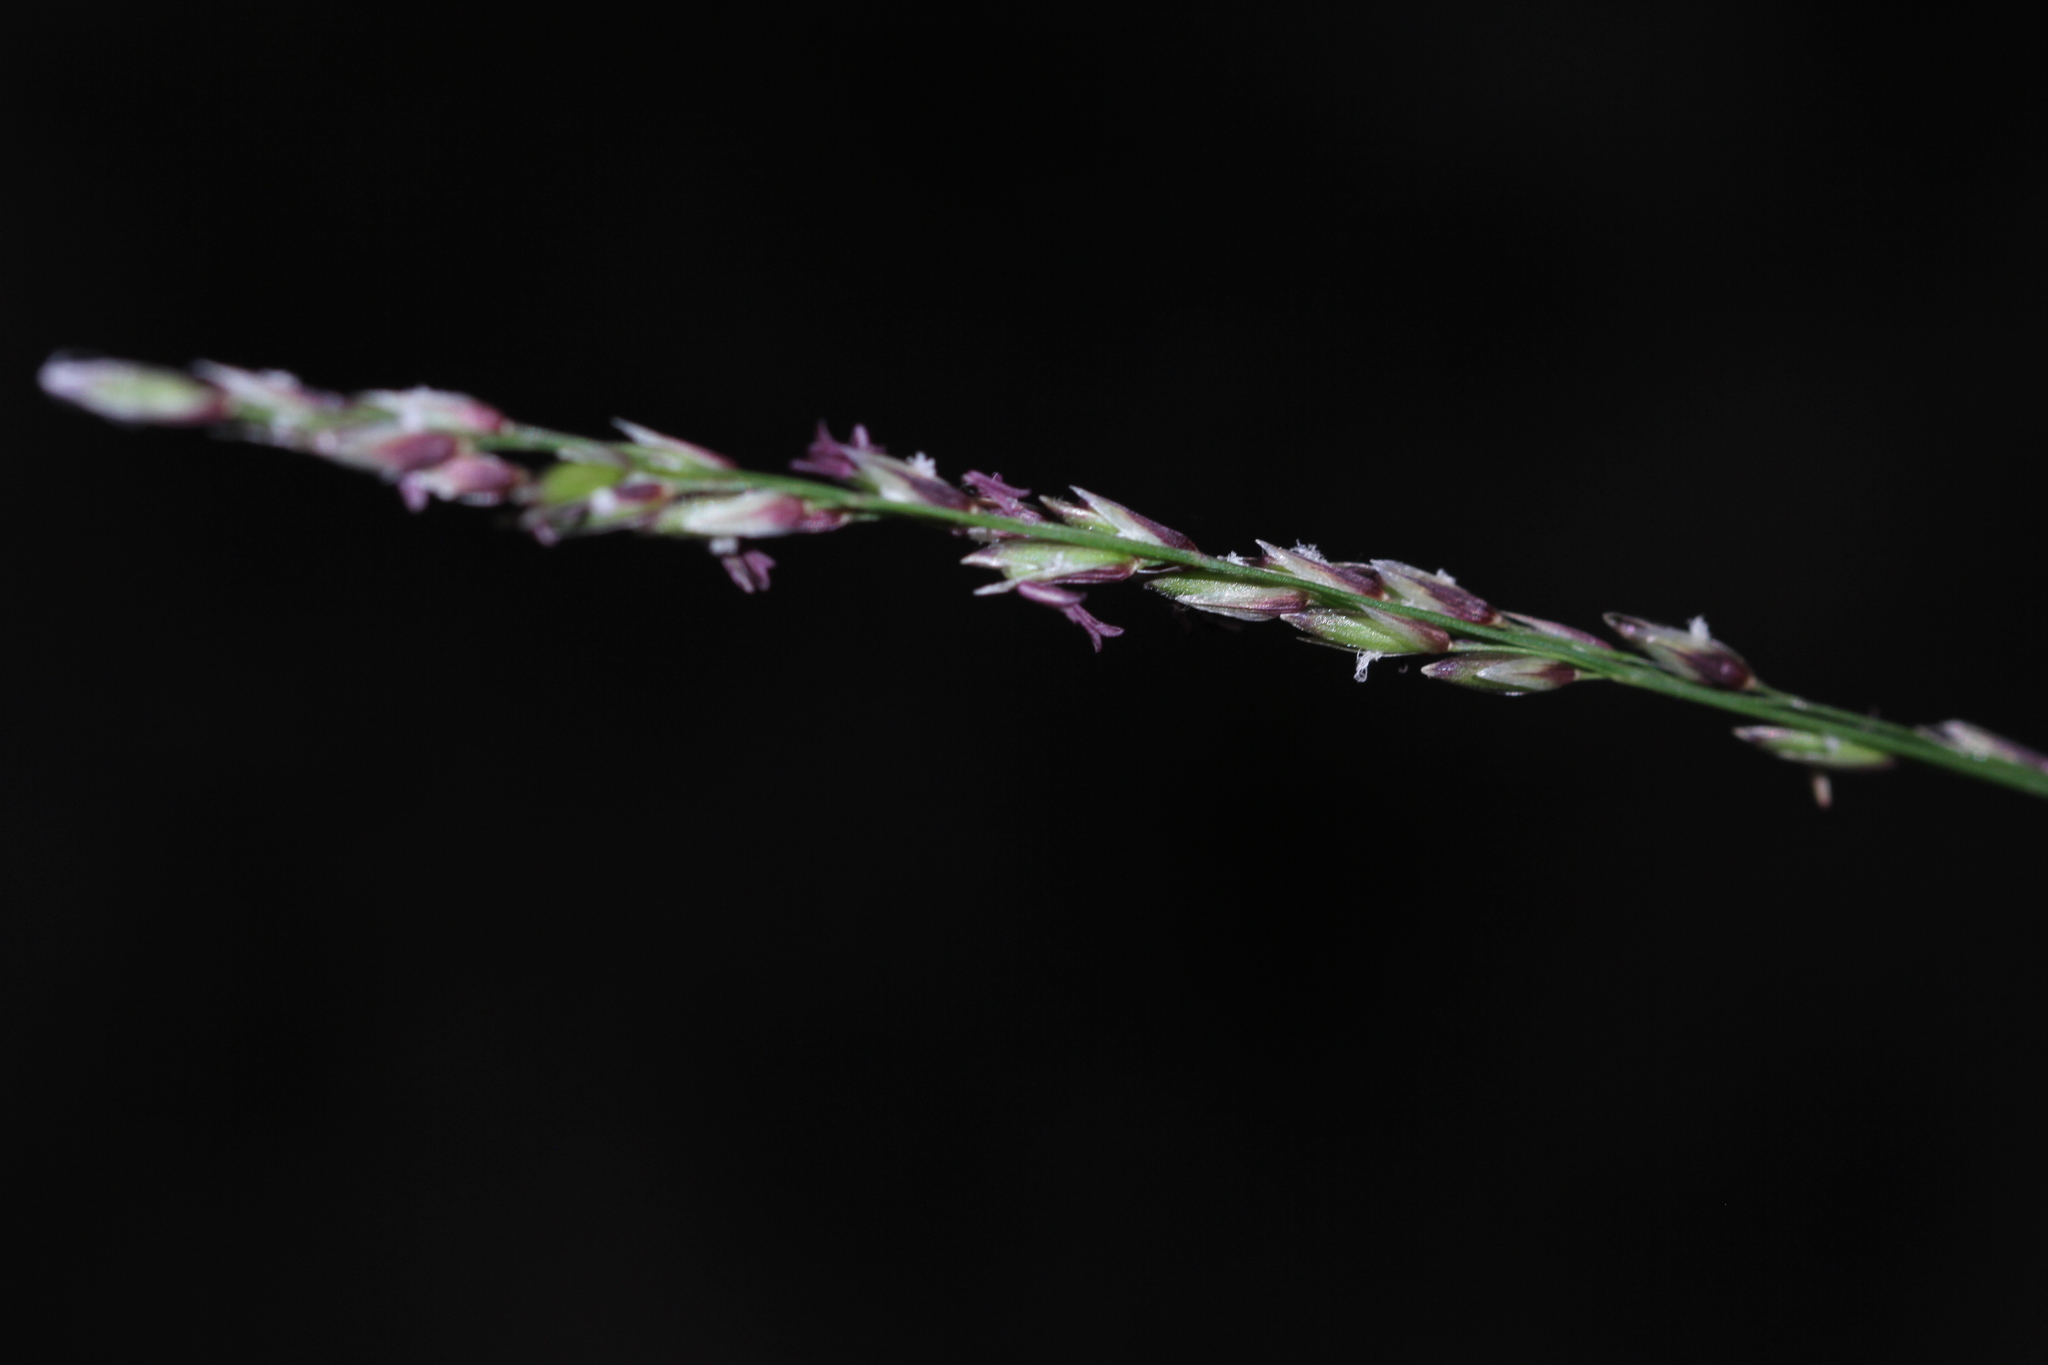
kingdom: Plantae
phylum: Tracheophyta
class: Liliopsida
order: Poales
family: Poaceae
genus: Melica
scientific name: Melica torreyana
